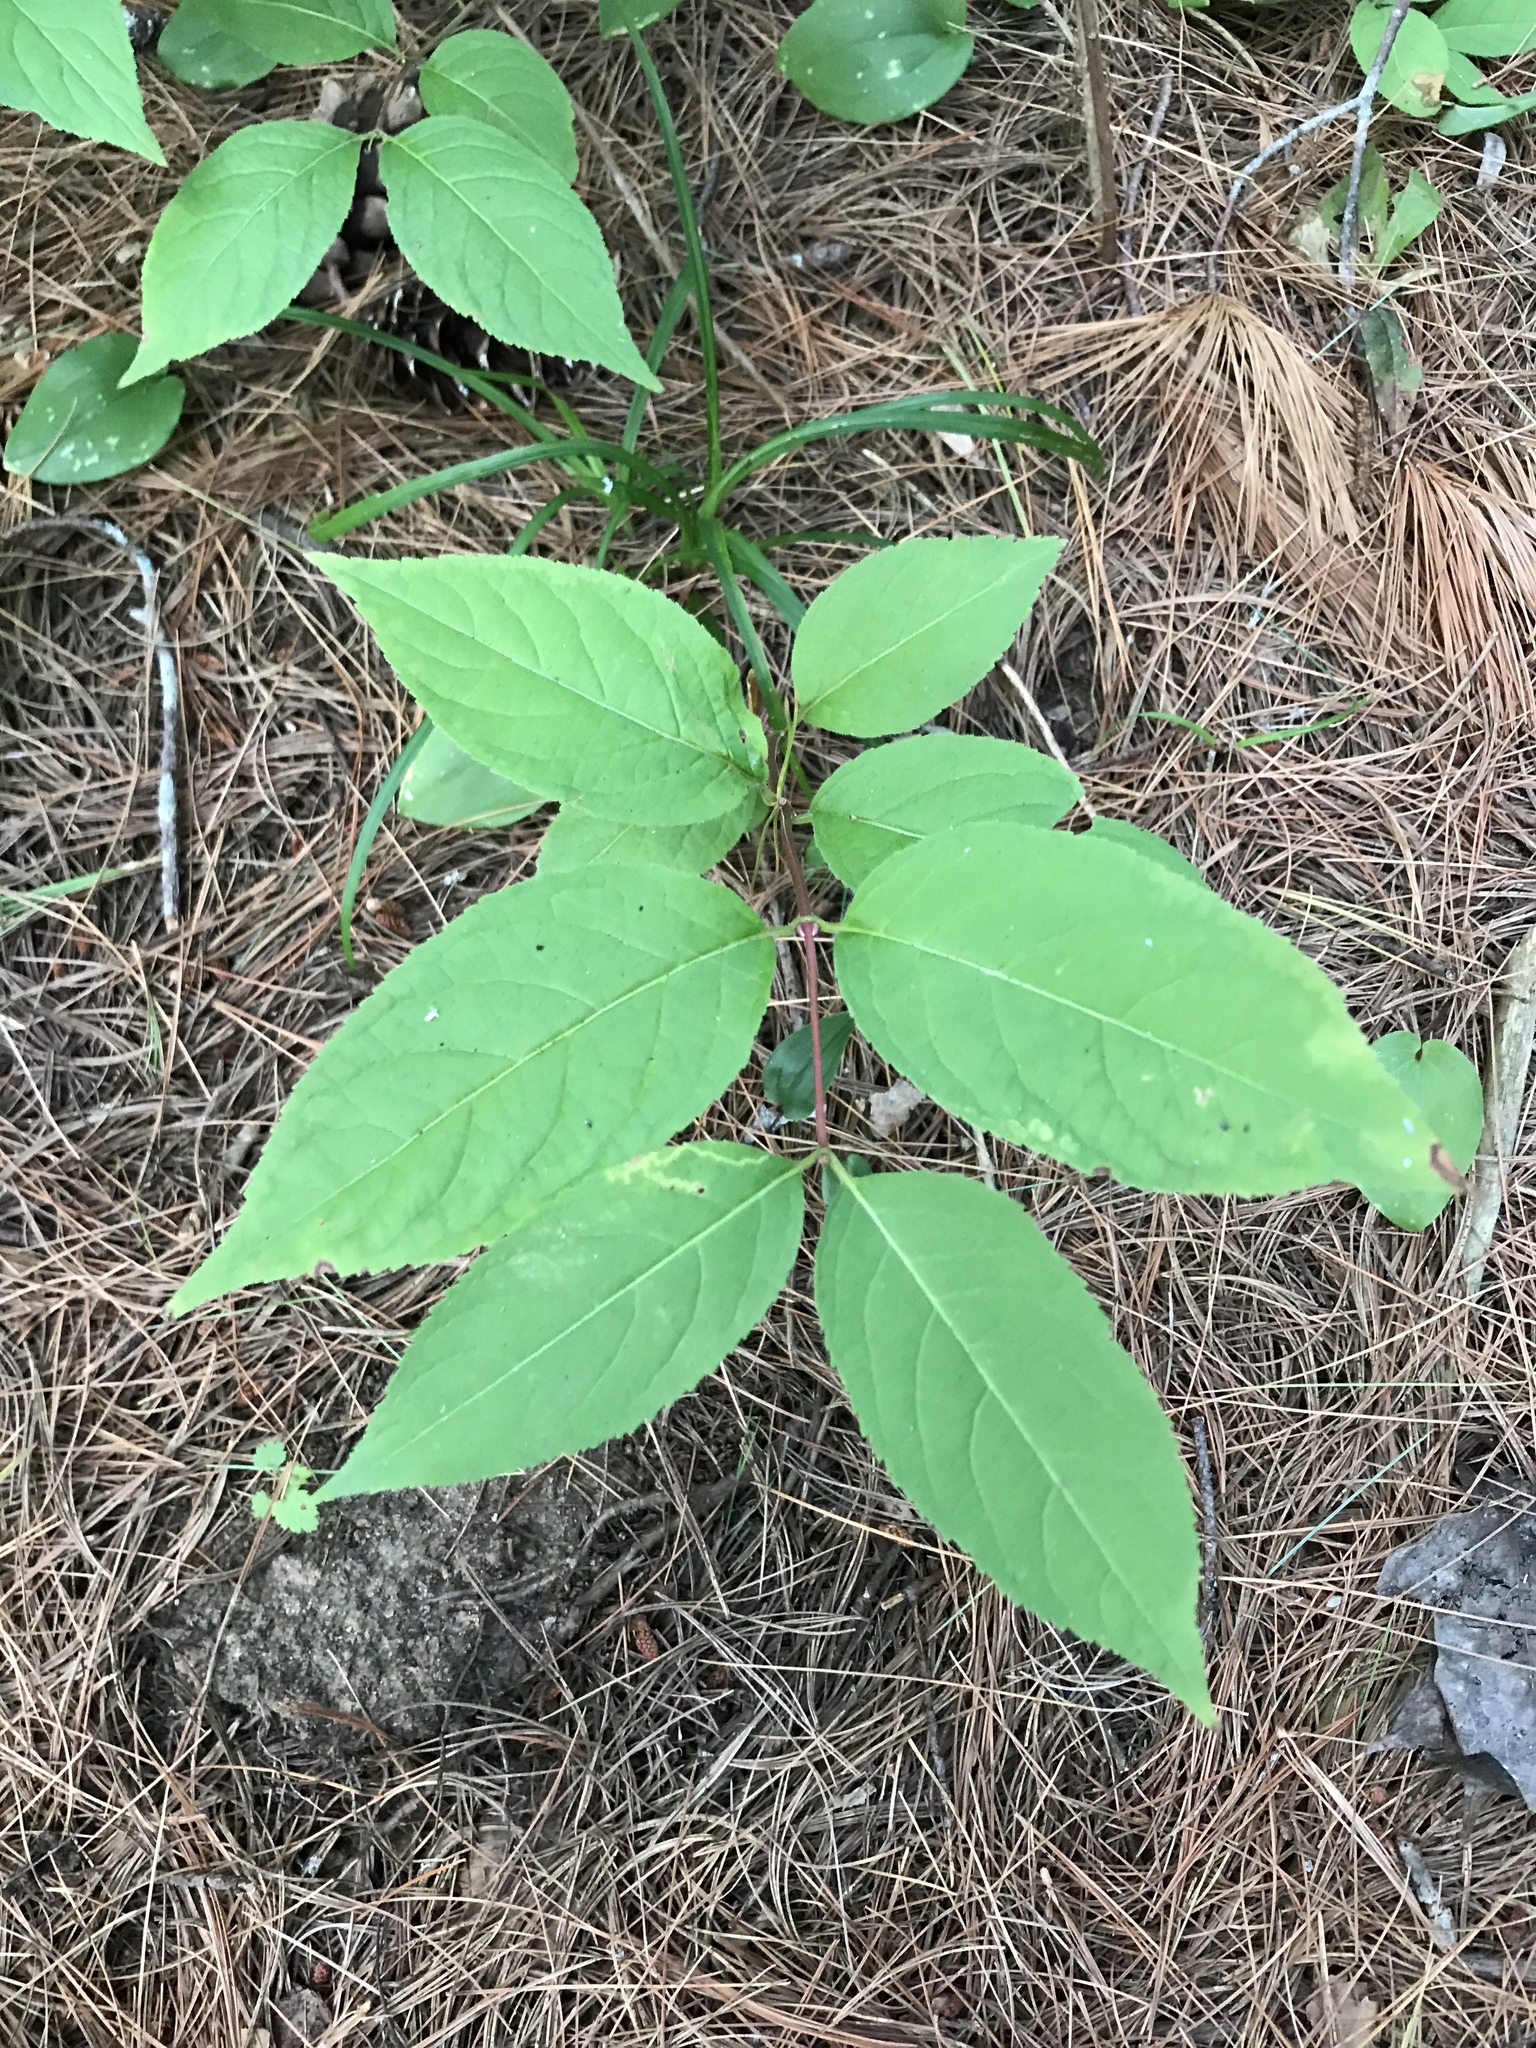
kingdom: Plantae
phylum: Tracheophyta
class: Magnoliopsida
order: Dipsacales
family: Caprifoliaceae
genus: Diervilla
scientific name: Diervilla lonicera
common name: Bush-honeysuckle
